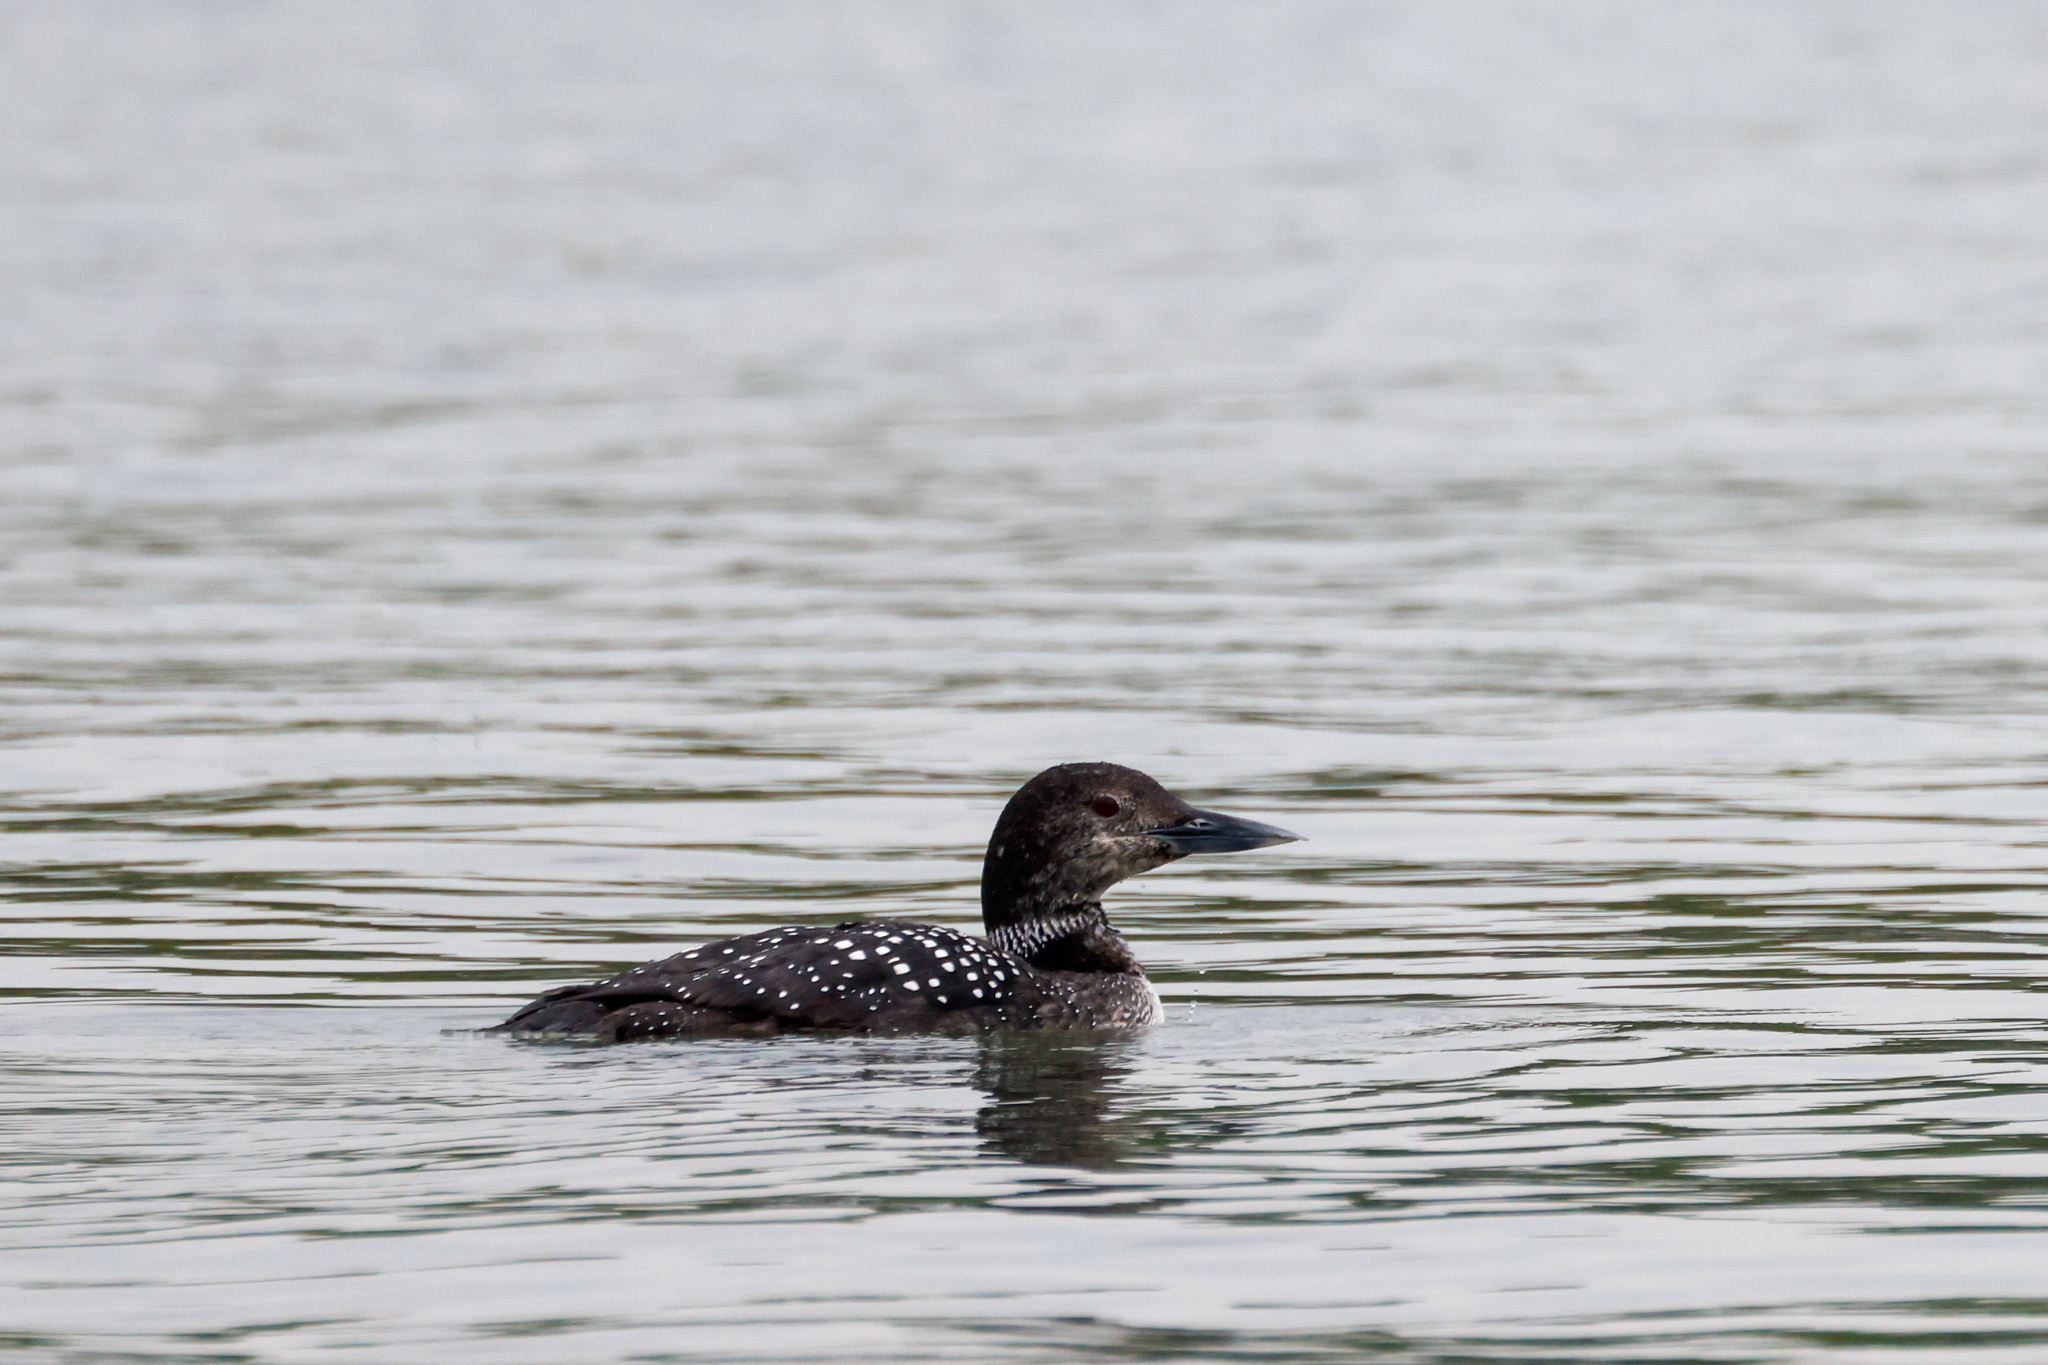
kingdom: Animalia
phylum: Chordata
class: Aves
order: Gaviiformes
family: Gaviidae
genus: Gavia
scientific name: Gavia immer
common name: Common loon
